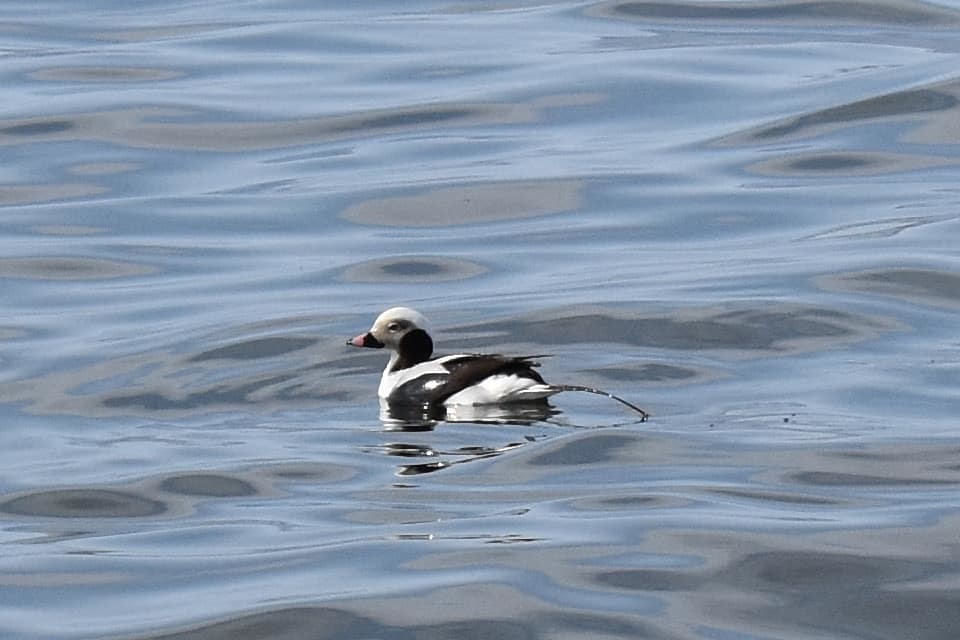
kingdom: Animalia
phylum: Chordata
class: Aves
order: Anseriformes
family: Anatidae
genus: Clangula
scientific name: Clangula hyemalis
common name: Long-tailed duck
